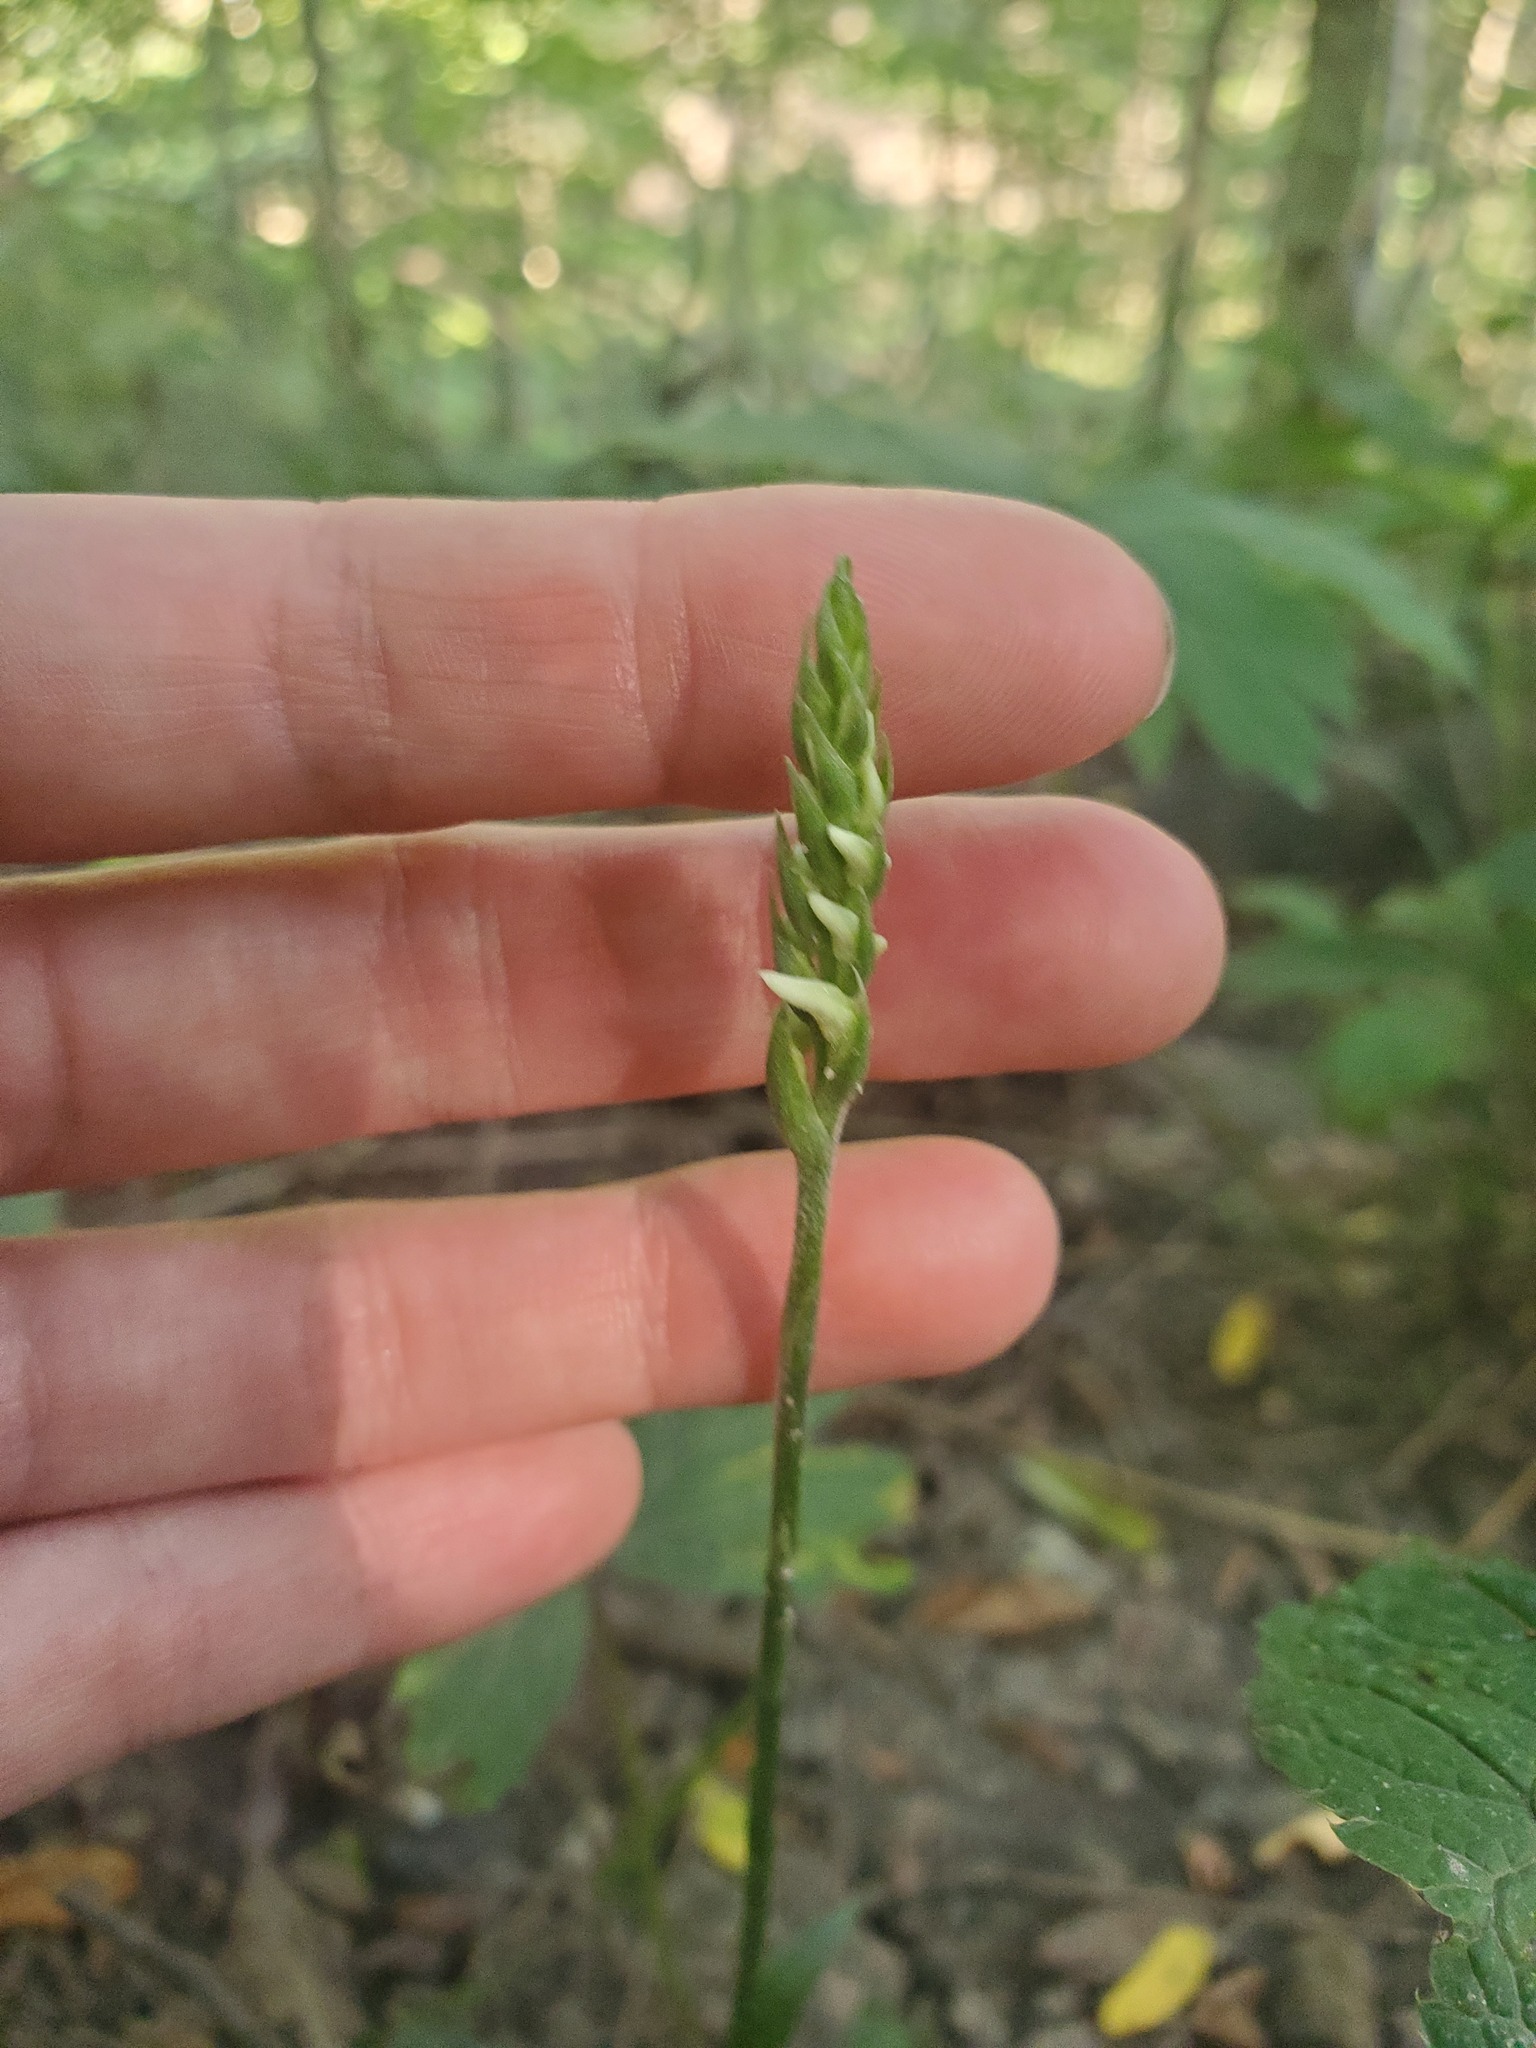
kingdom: Plantae
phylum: Tracheophyta
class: Liliopsida
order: Asparagales
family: Orchidaceae
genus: Spiranthes
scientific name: Spiranthes ovalis
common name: October ladies'-tresses
